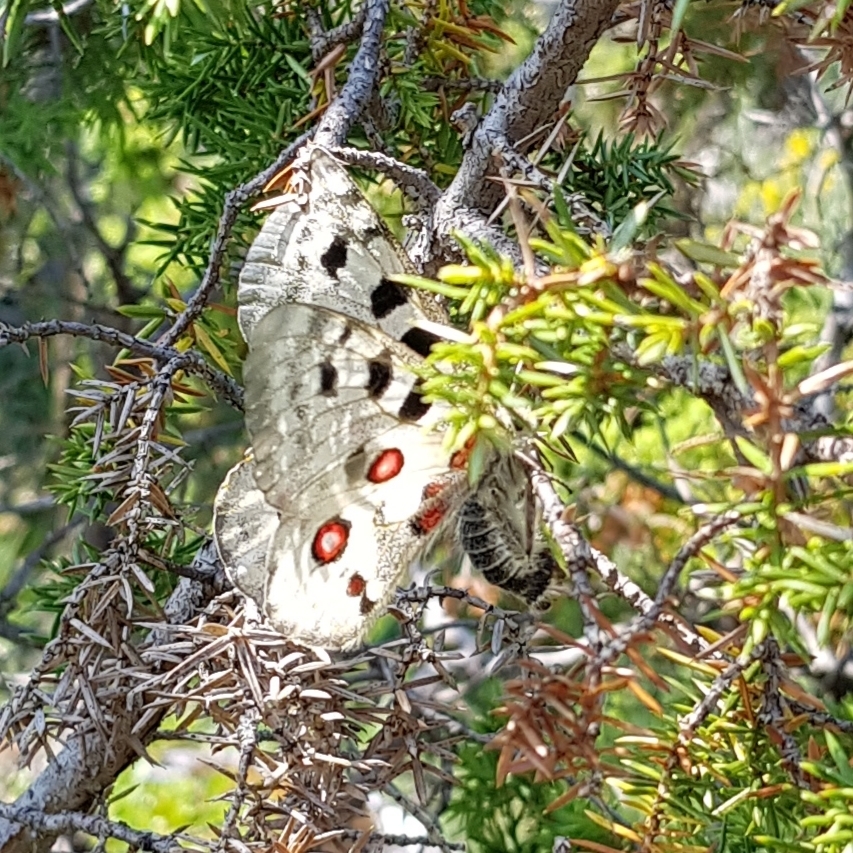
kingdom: Animalia
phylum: Arthropoda
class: Insecta
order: Lepidoptera
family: Papilionidae
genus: Parnassius
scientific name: Parnassius apollo
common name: Apollo
